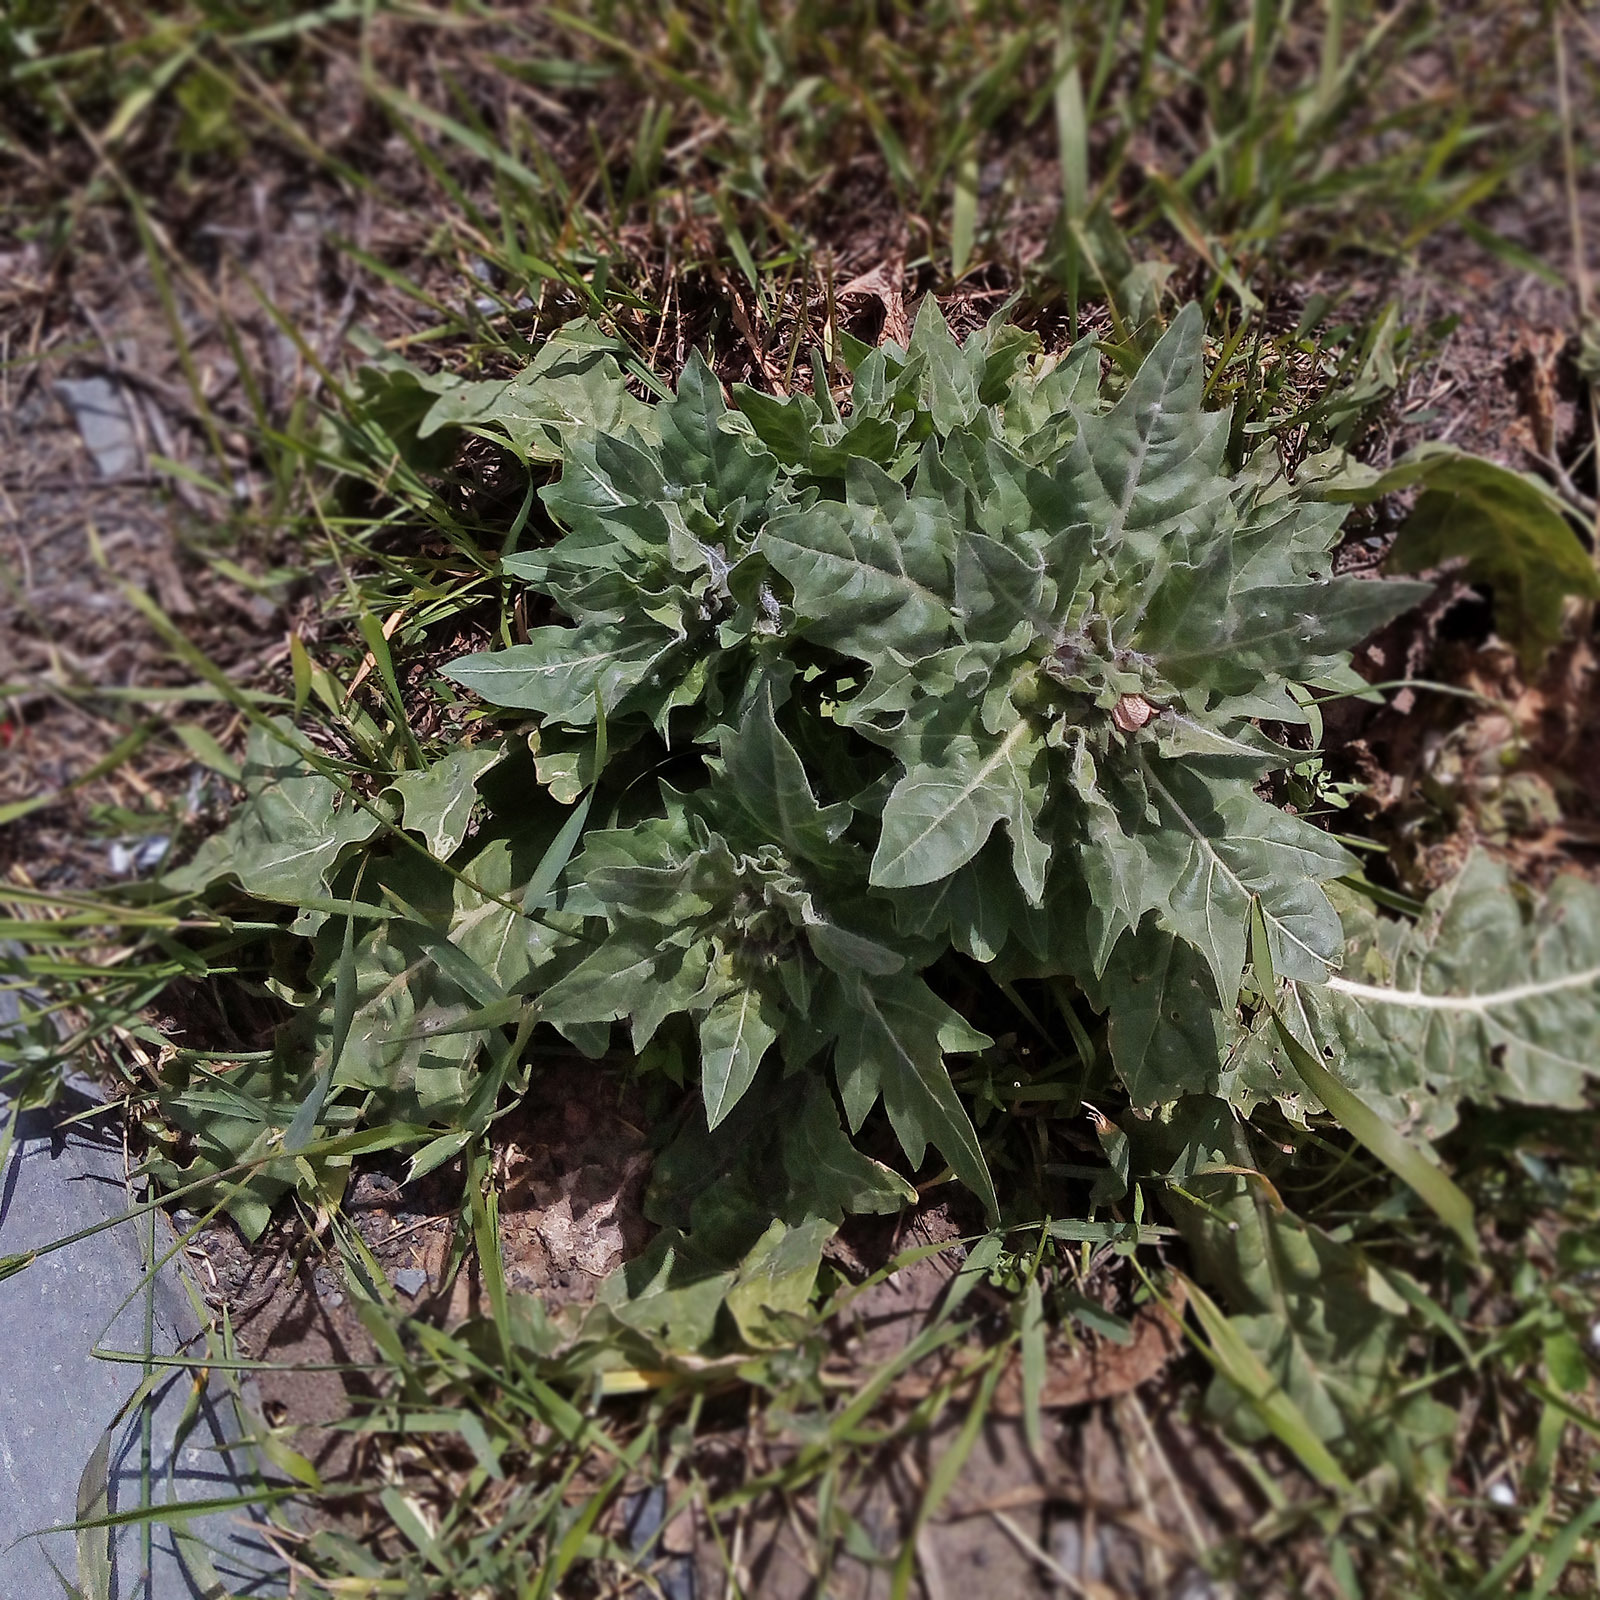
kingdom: Plantae
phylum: Tracheophyta
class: Magnoliopsida
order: Solanales
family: Solanaceae
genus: Hyoscyamus
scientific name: Hyoscyamus niger
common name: Henbane
